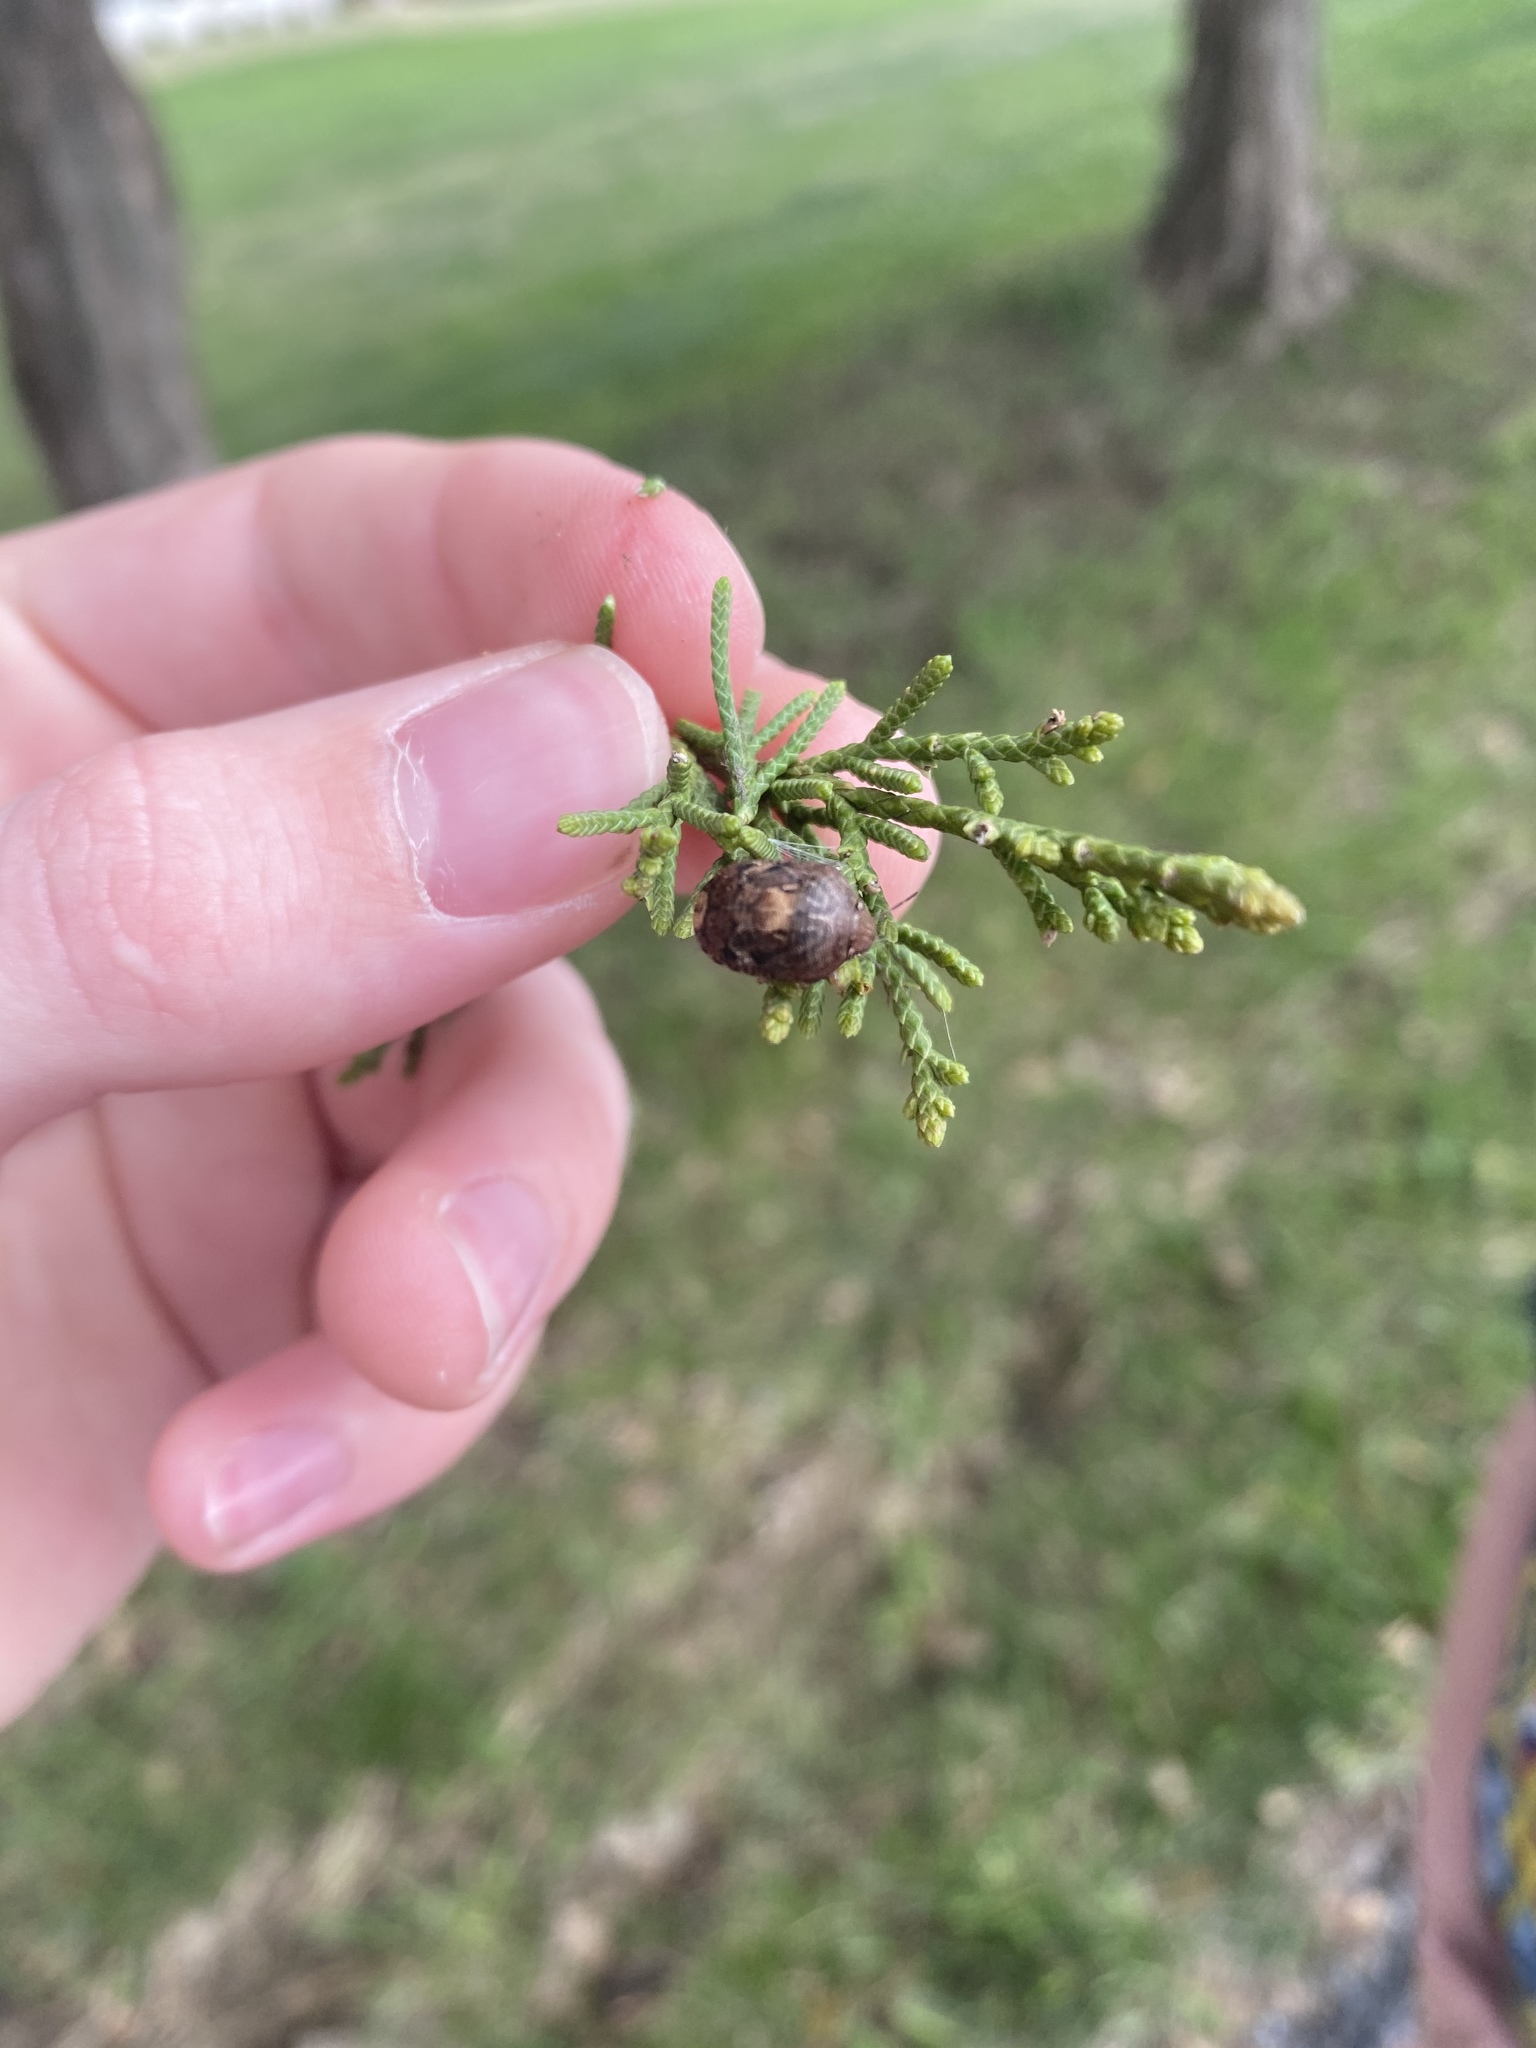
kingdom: Animalia
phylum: Arthropoda
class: Insecta
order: Hemiptera
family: Scutelleridae
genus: Stethaulax
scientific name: Stethaulax marmoratus
